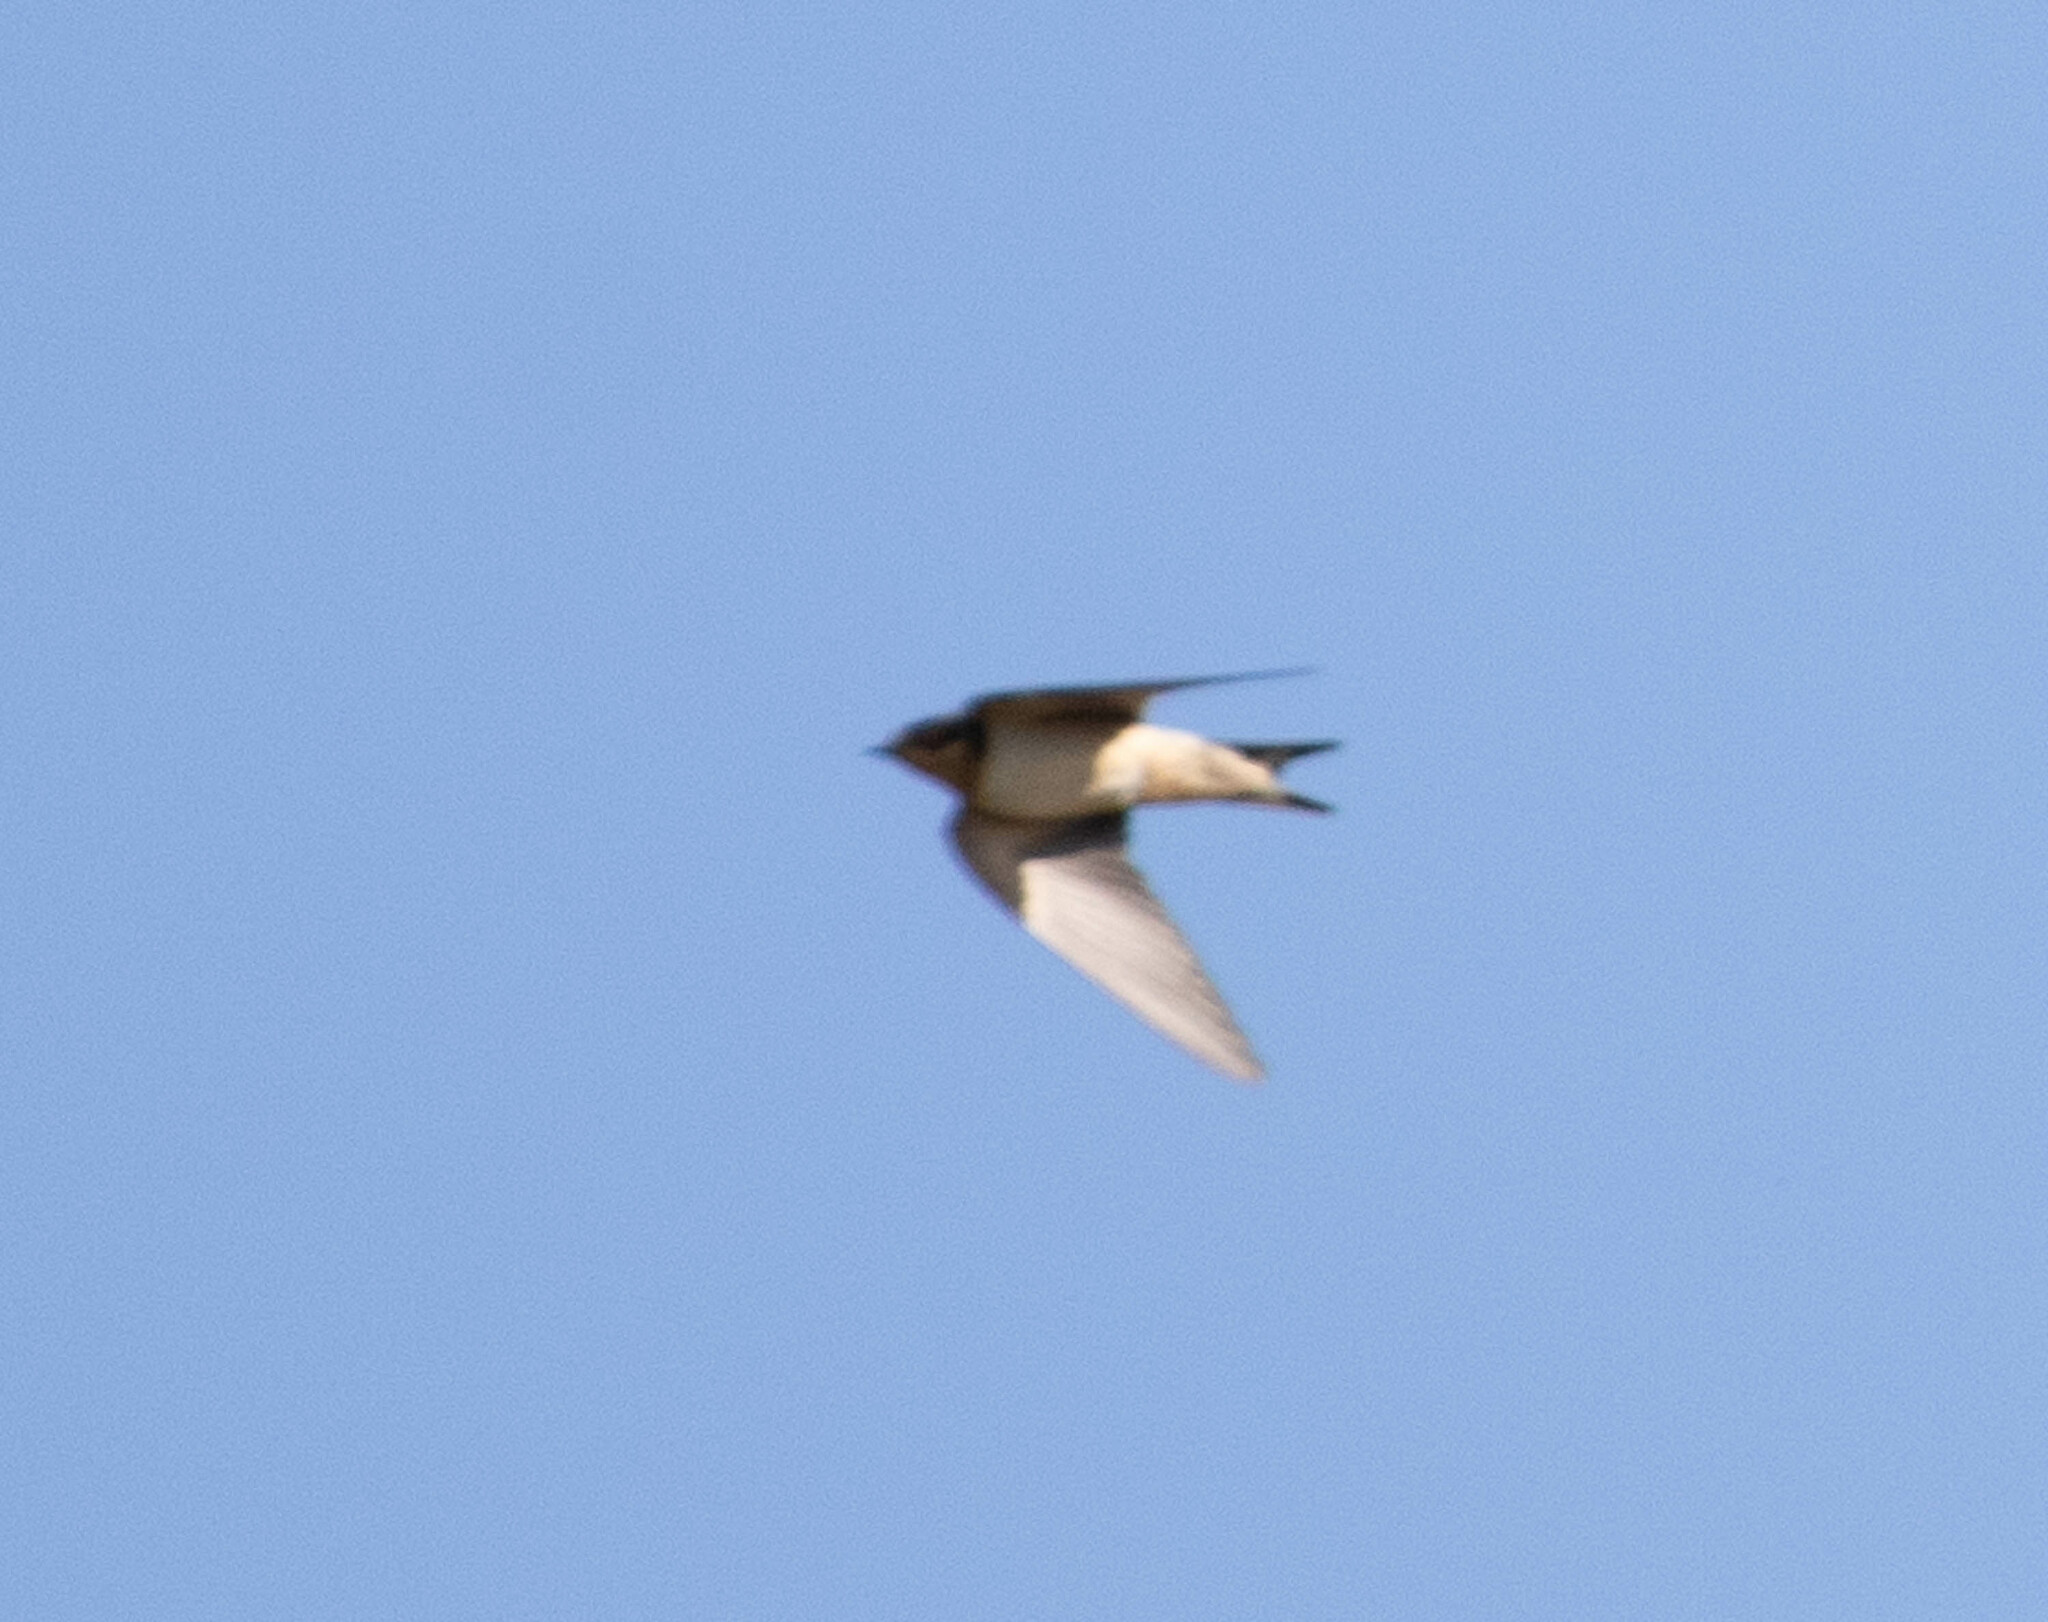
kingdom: Animalia
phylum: Chordata
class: Aves
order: Passeriformes
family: Hirundinidae
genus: Hirundo
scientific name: Hirundo rustica
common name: Barn swallow
